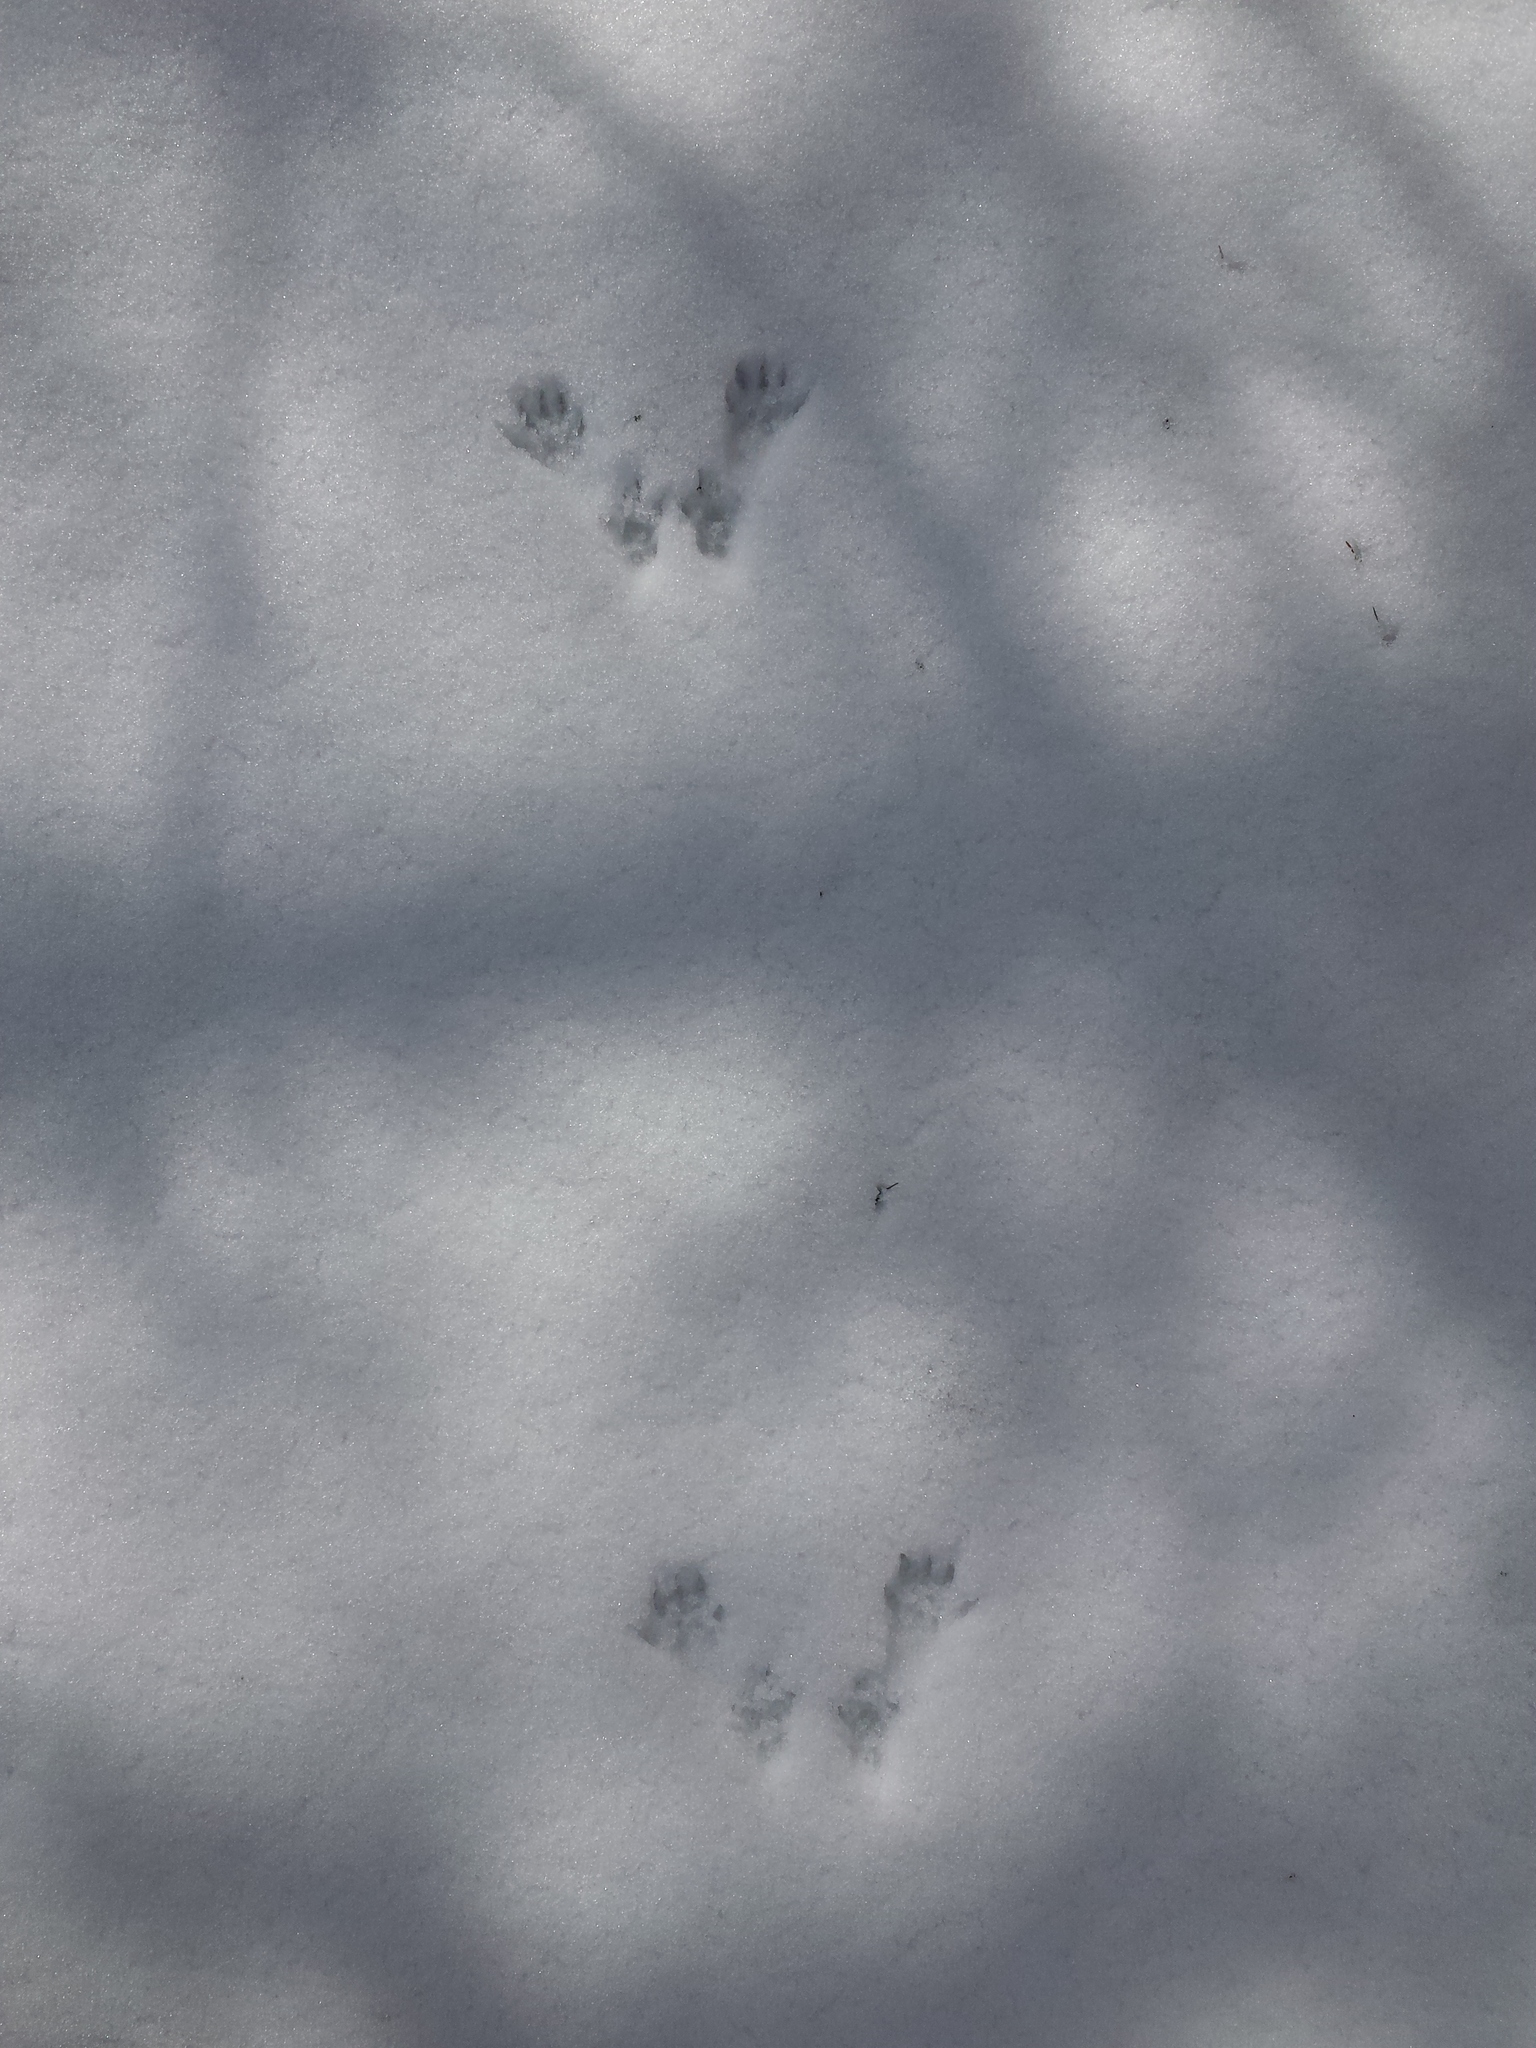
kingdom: Animalia
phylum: Chordata
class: Mammalia
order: Rodentia
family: Sciuridae
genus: Sciurus
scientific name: Sciurus carolinensis
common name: Eastern gray squirrel
